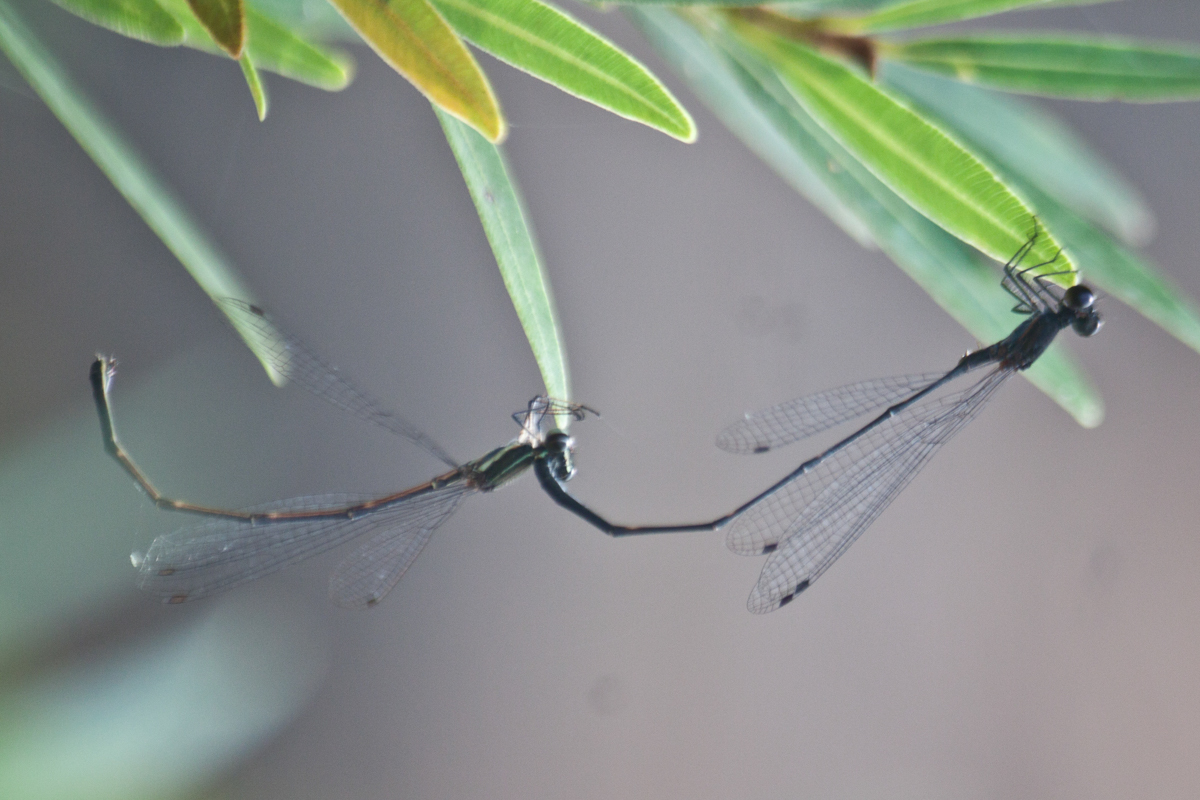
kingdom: Animalia
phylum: Arthropoda
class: Insecta
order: Odonata
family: Platycnemididae
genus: Prodasineura
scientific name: Prodasineura autumnalis
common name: Black threadtail
